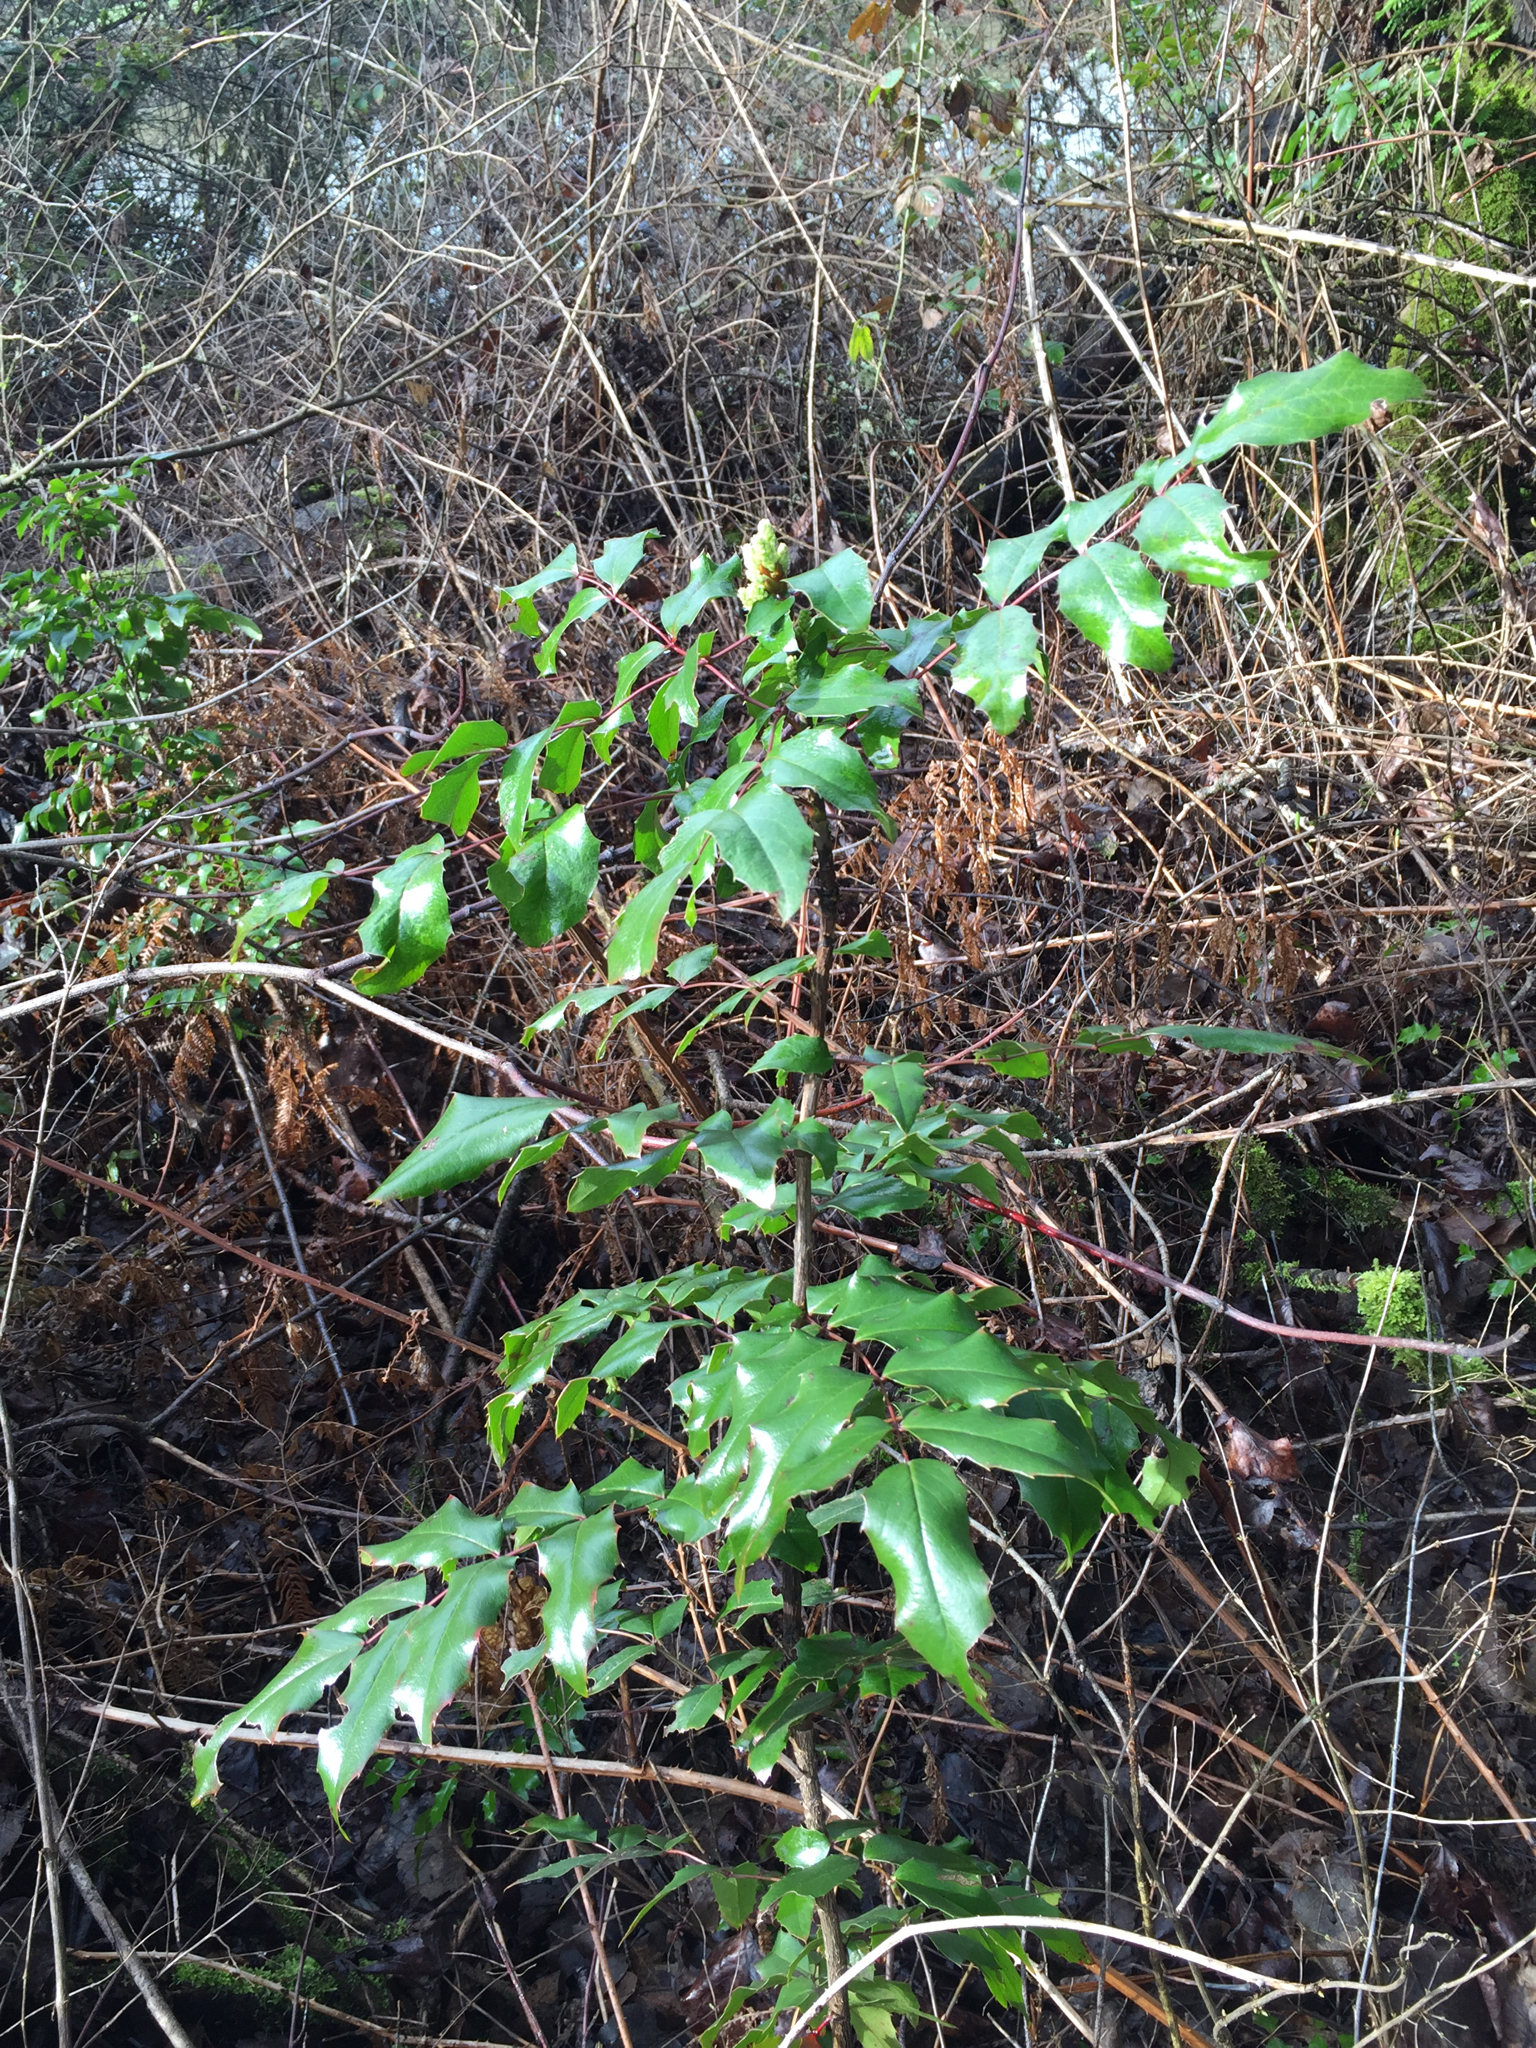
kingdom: Plantae
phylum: Tracheophyta
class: Magnoliopsida
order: Ranunculales
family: Berberidaceae
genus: Mahonia
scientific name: Mahonia aquifolium
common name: Oregon-grape
